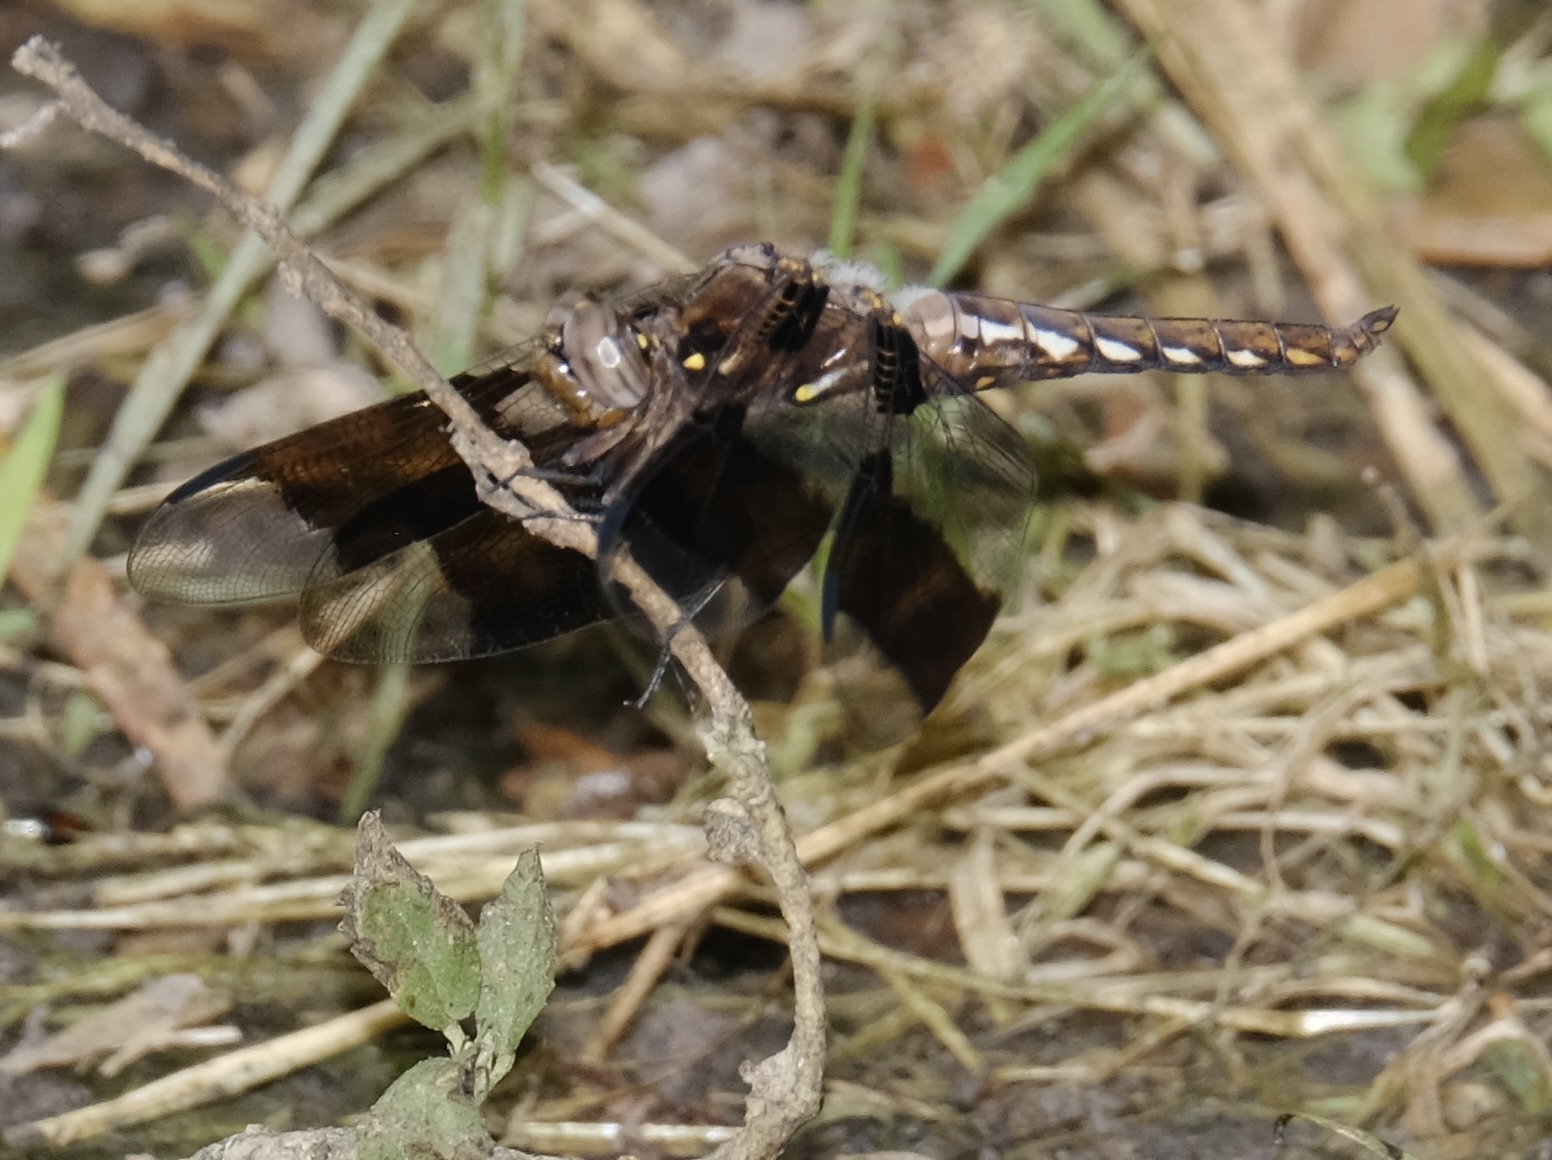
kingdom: Animalia
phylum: Arthropoda
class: Insecta
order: Odonata
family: Libellulidae
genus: Plathemis
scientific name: Plathemis lydia
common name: Common whitetail
